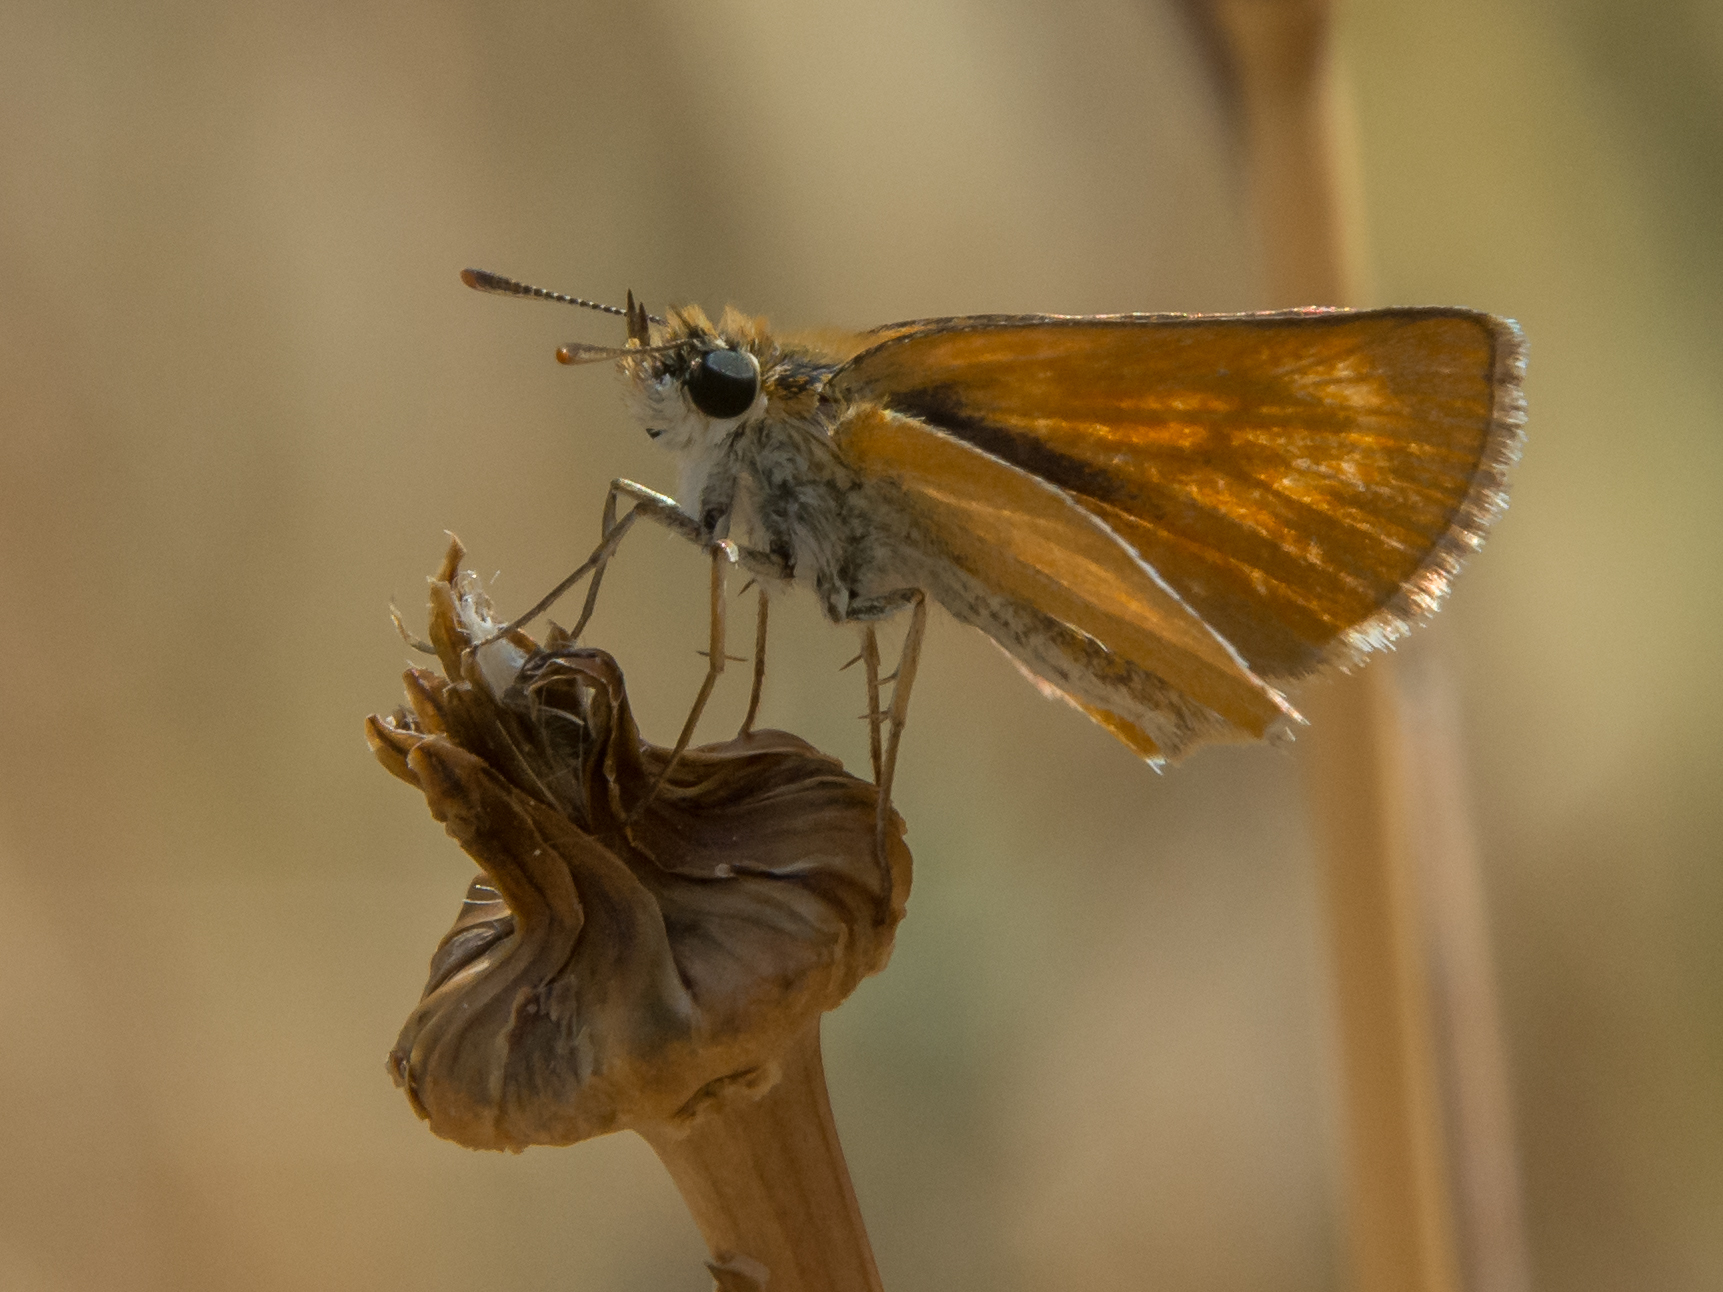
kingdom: Animalia
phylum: Arthropoda
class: Insecta
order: Lepidoptera
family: Hesperiidae
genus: Thymelicus
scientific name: Thymelicus acteon
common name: Lulworth skipper
